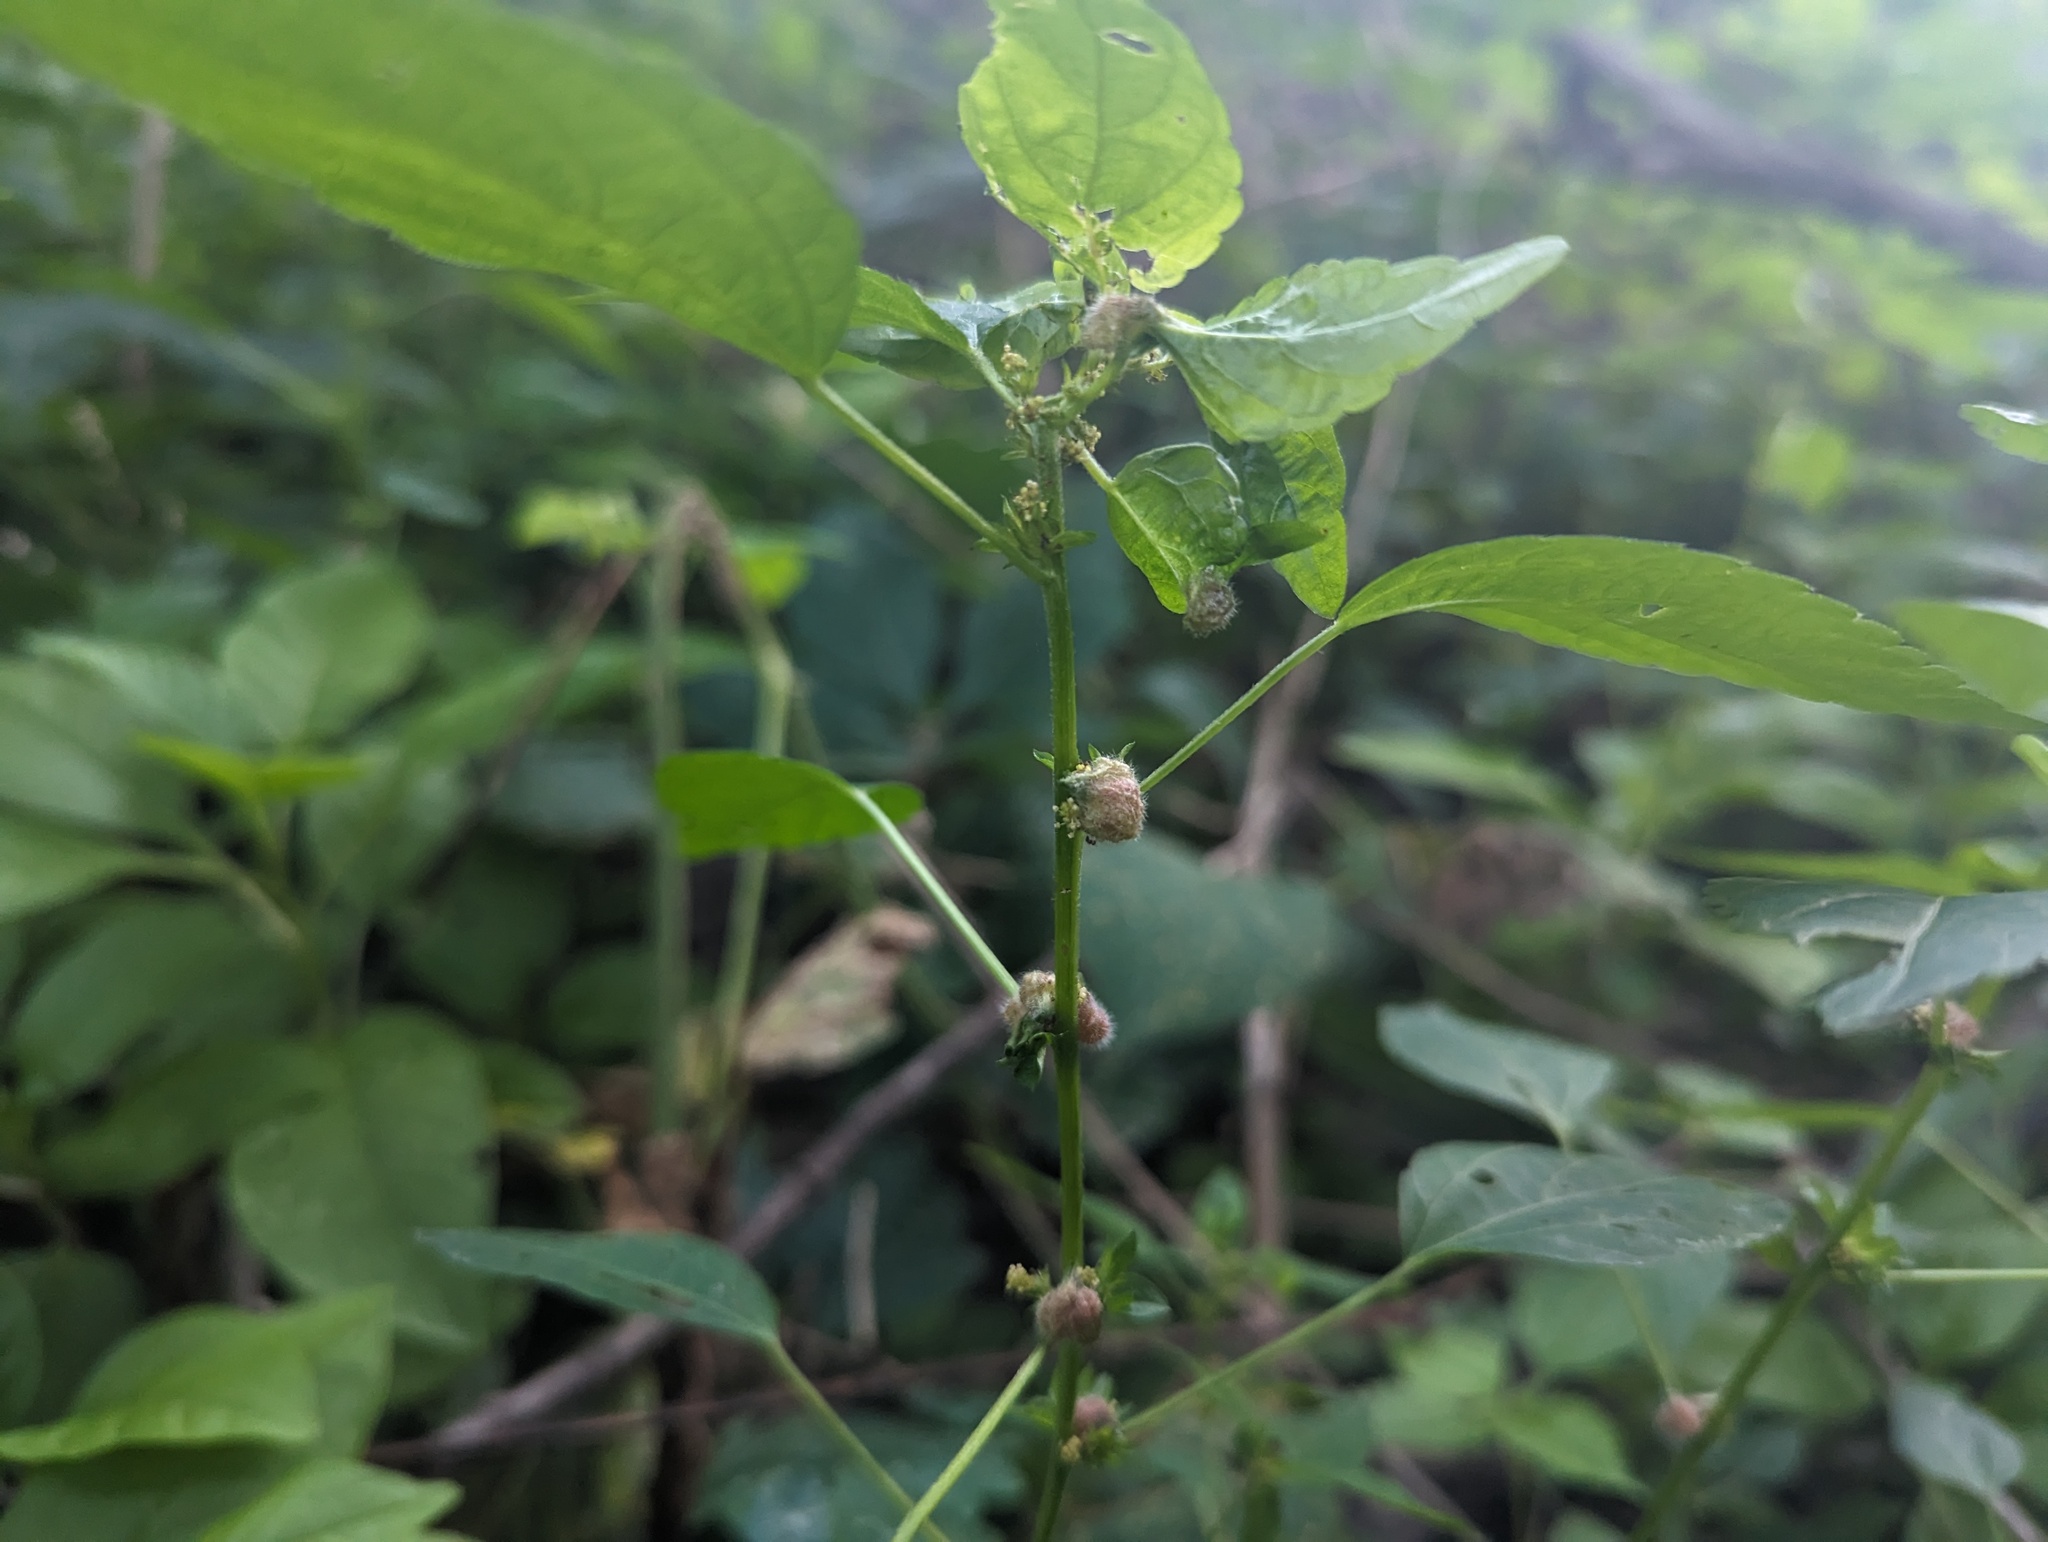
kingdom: Animalia
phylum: Arthropoda
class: Insecta
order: Diptera
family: Cecidomyiidae
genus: Resseliella
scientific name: Resseliella globosa
